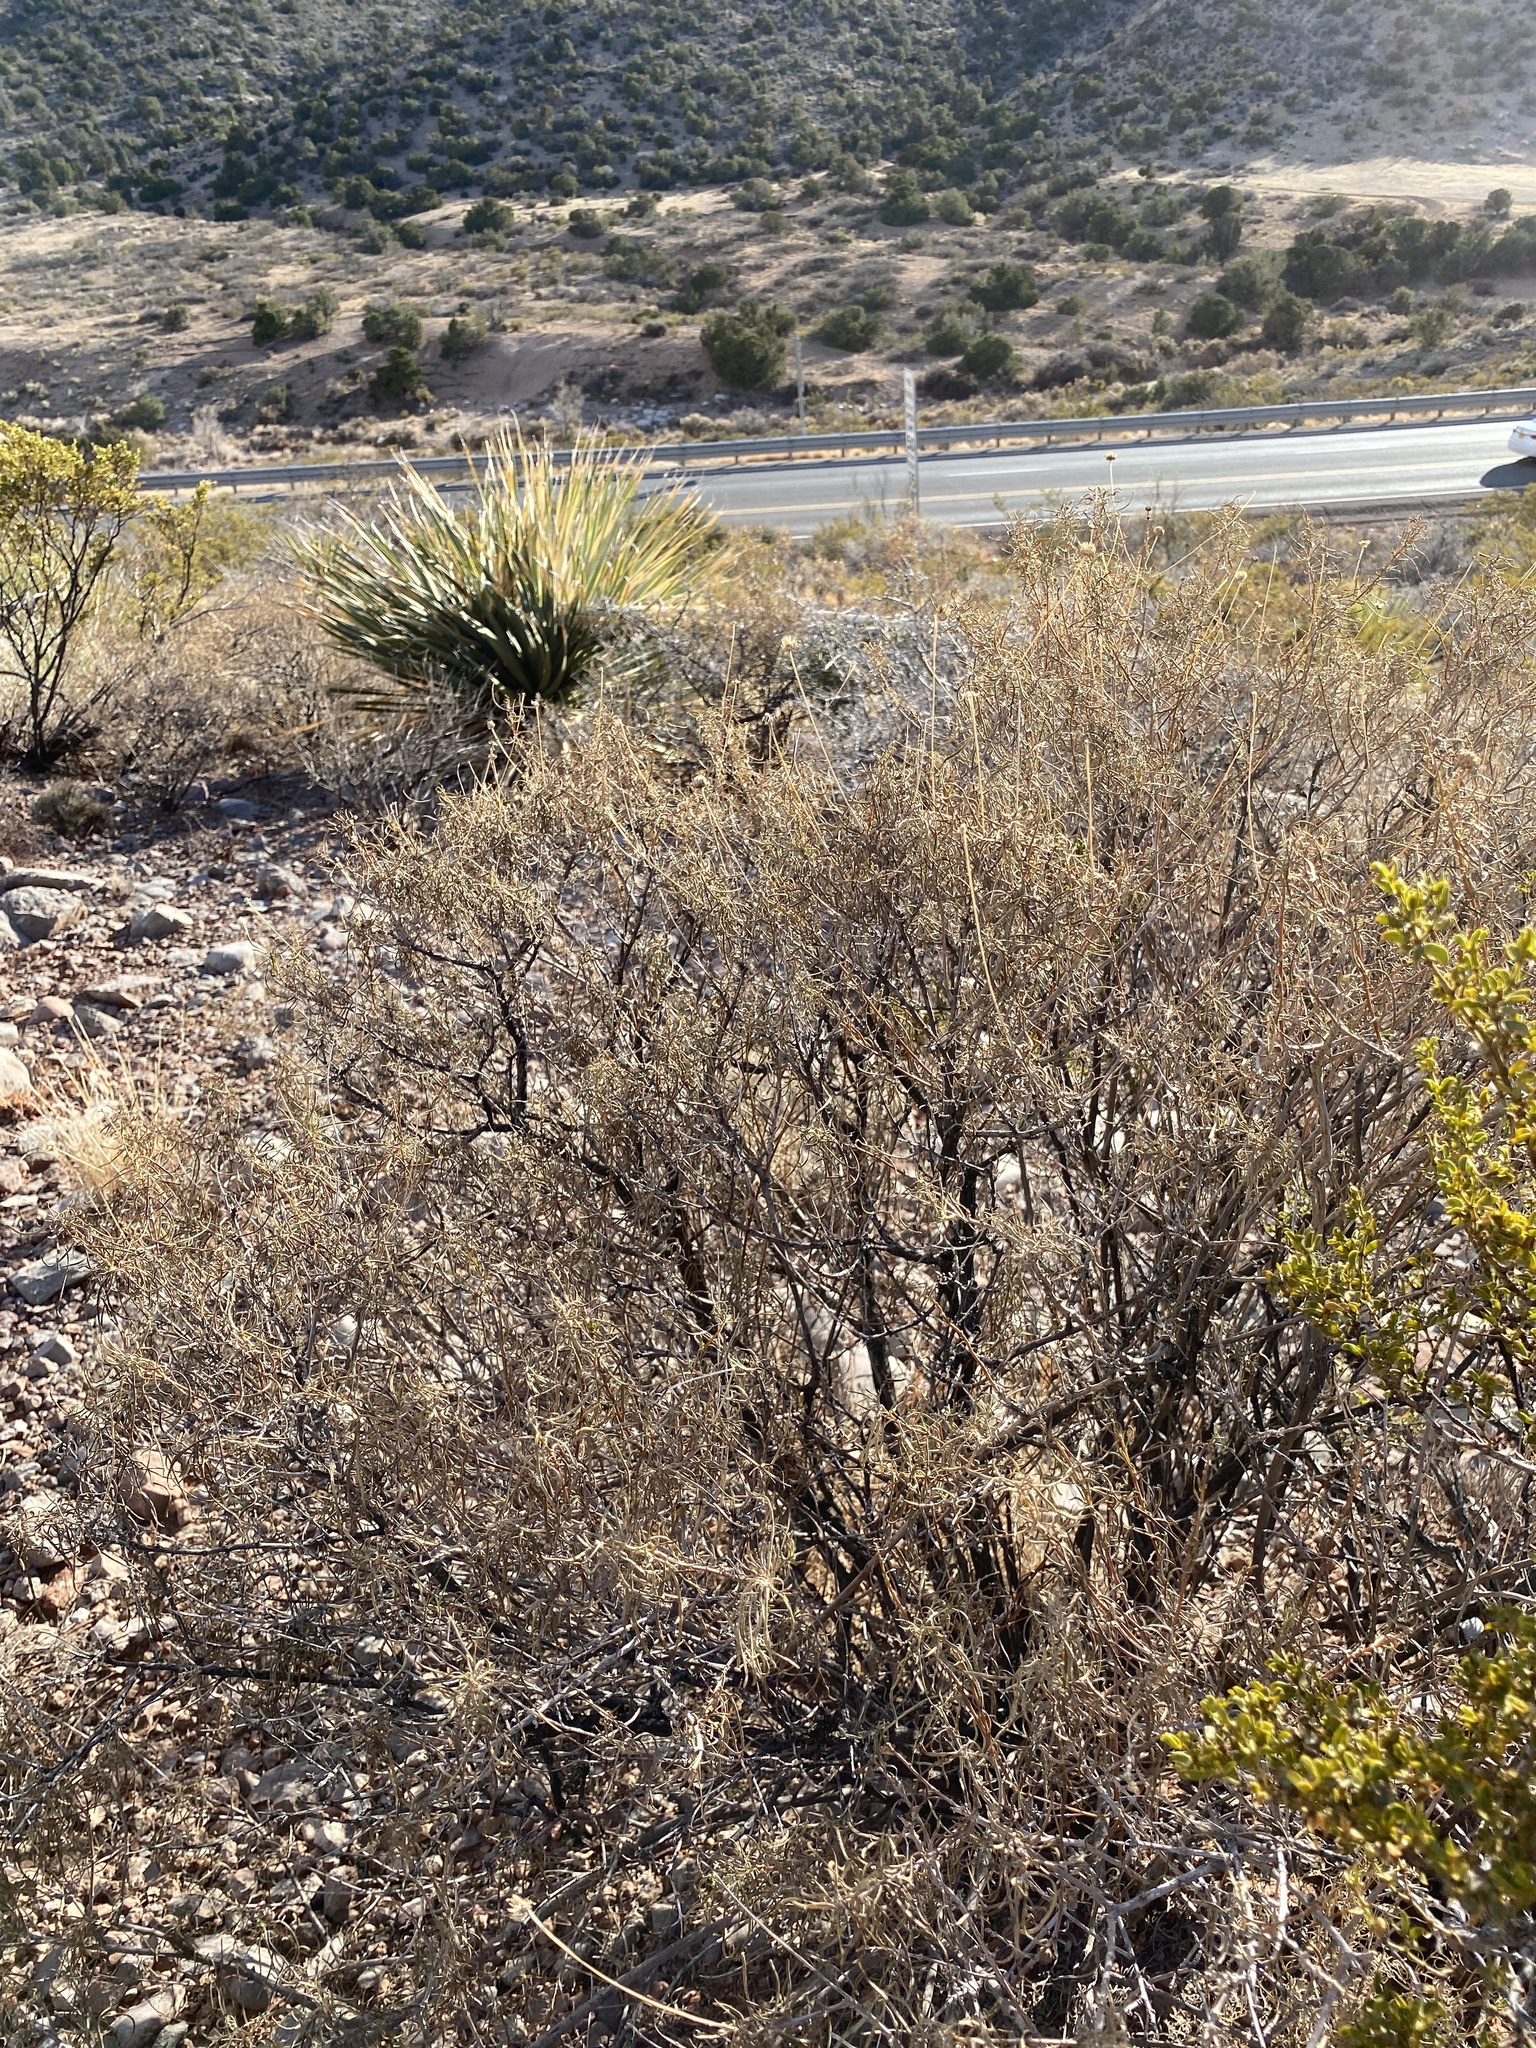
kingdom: Plantae
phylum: Tracheophyta
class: Magnoliopsida
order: Asterales
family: Asteraceae
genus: Sidneya
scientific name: Sidneya tenuifolia
